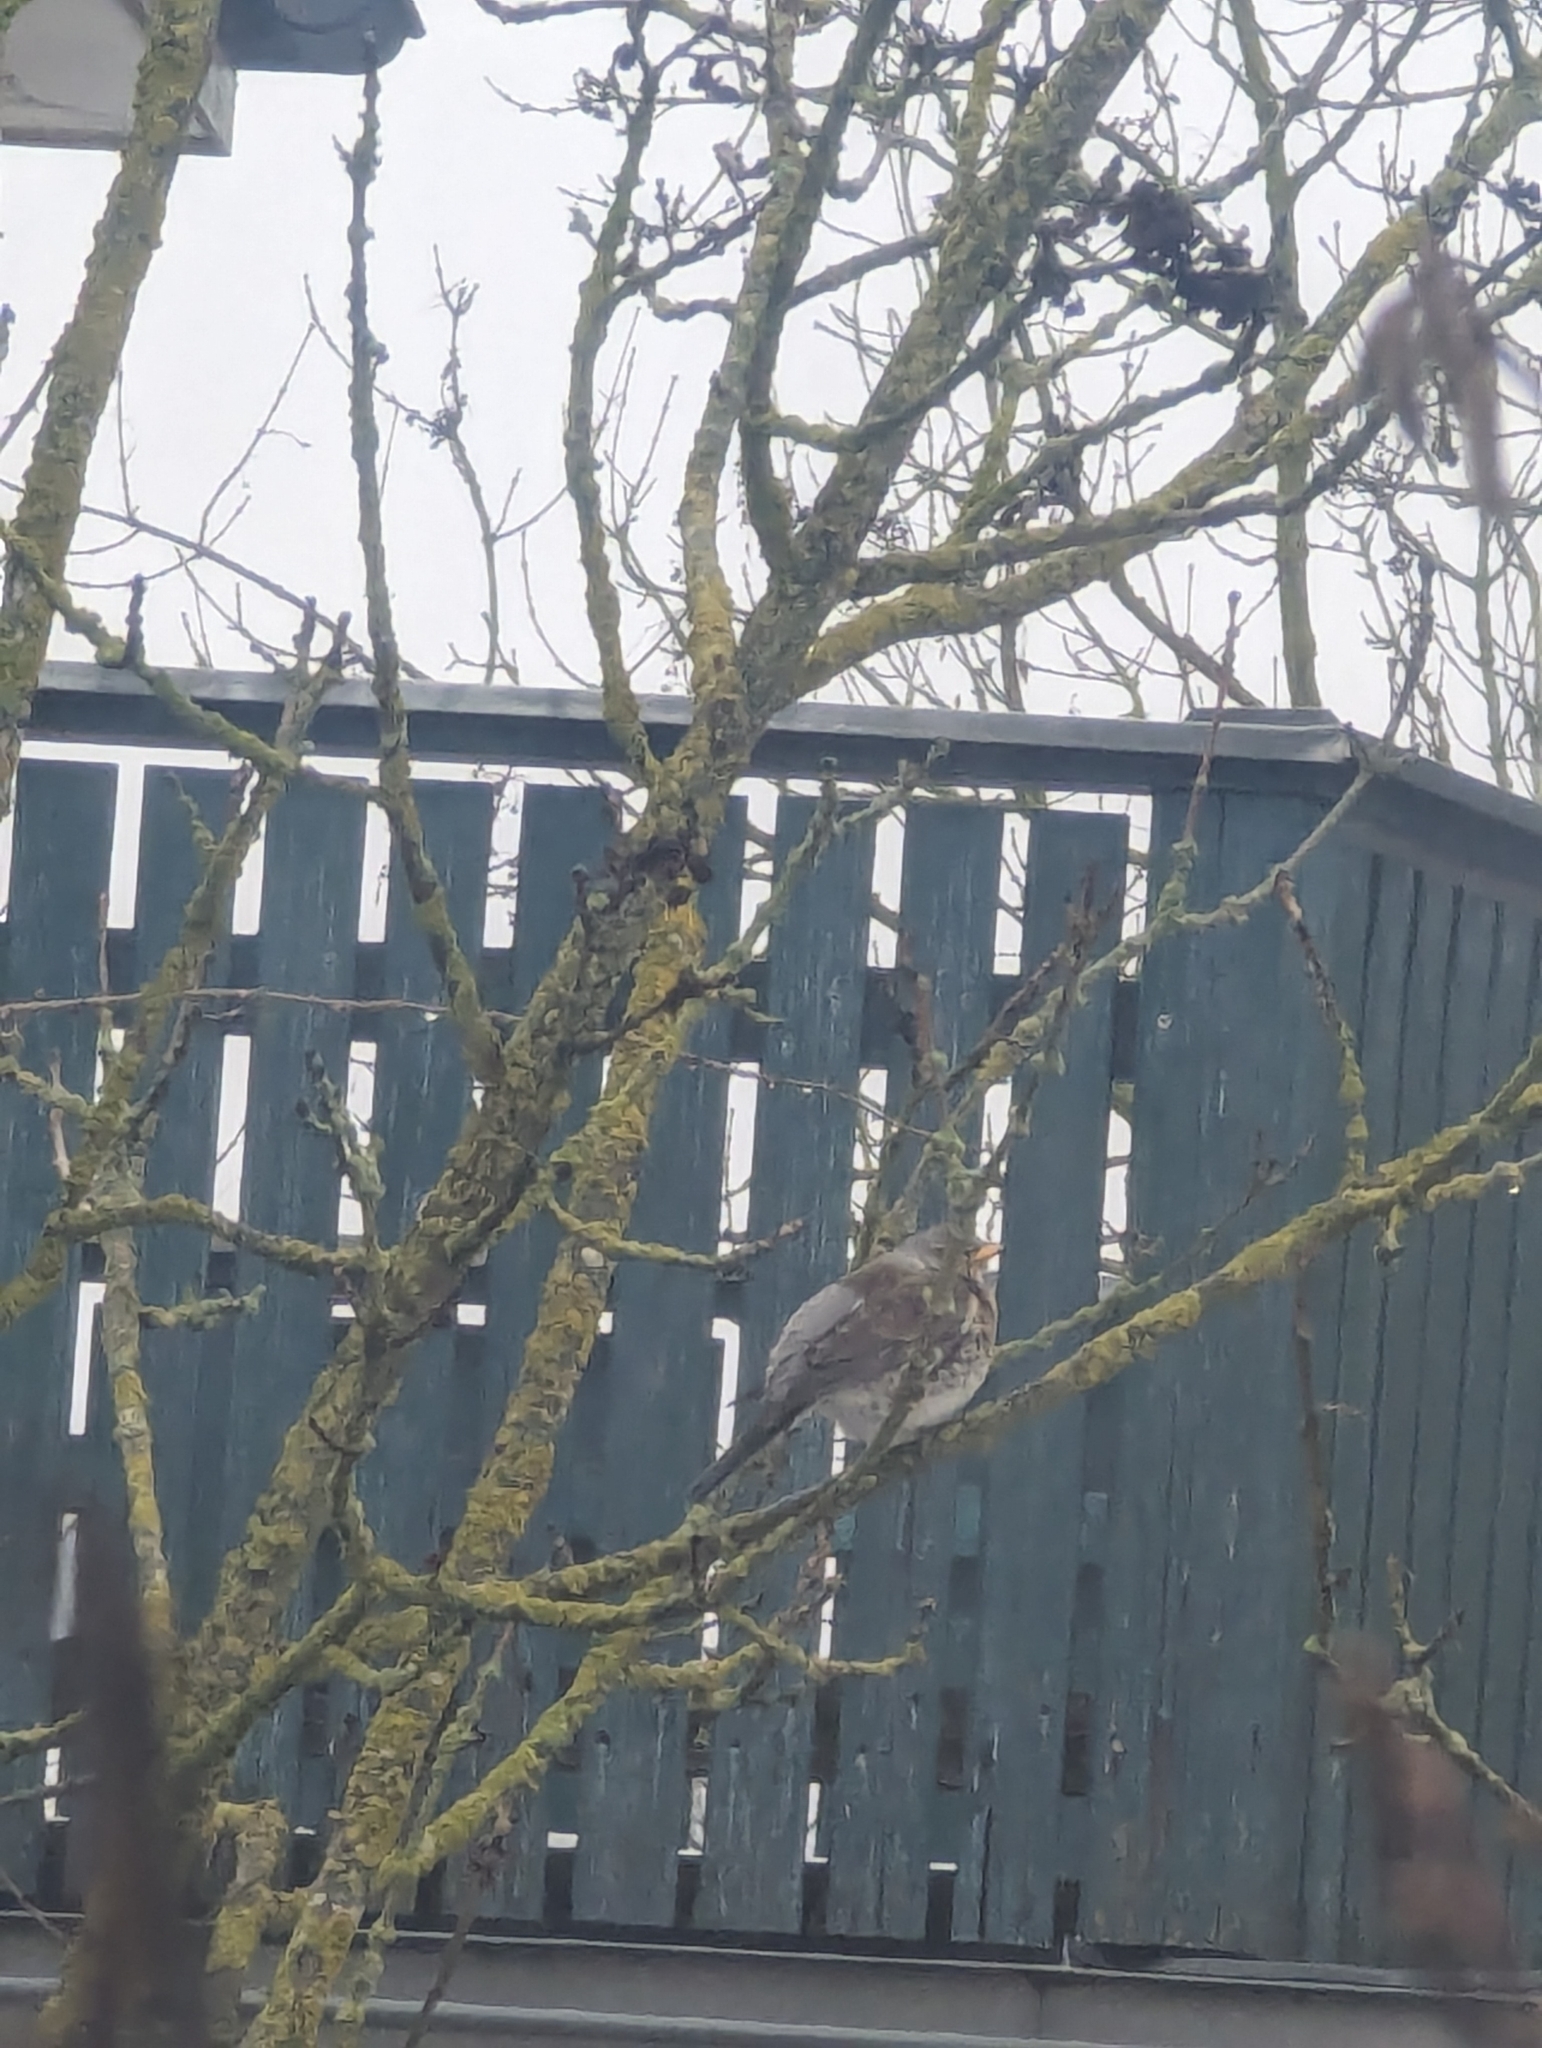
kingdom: Animalia
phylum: Chordata
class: Aves
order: Passeriformes
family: Turdidae
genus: Turdus
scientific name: Turdus pilaris
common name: Fieldfare
